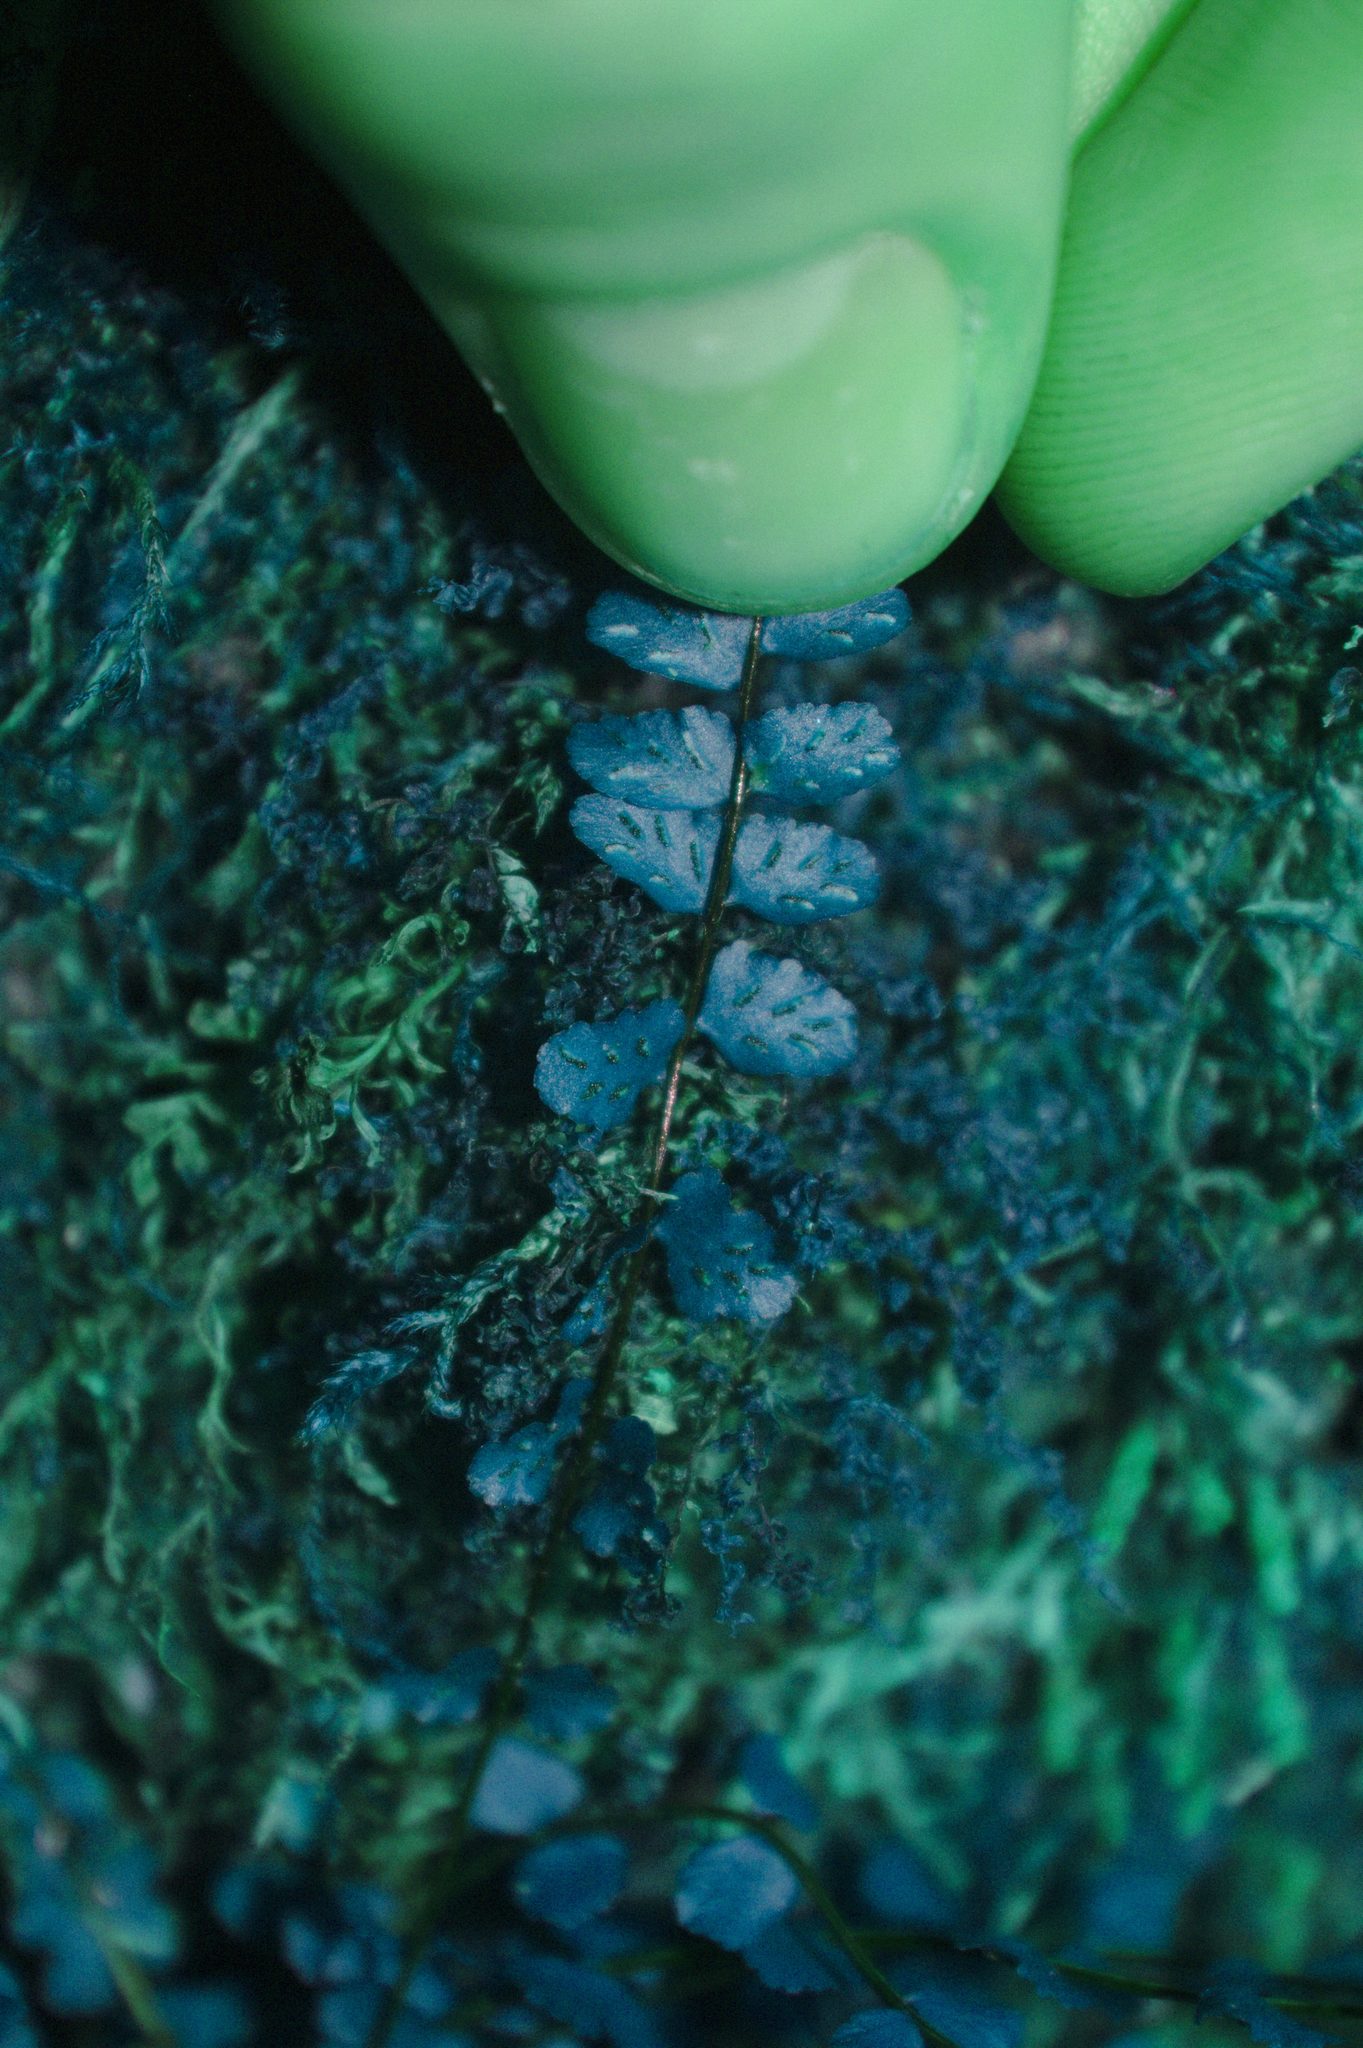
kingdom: Plantae
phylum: Tracheophyta
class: Polypodiopsida
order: Polypodiales
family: Aspleniaceae
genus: Asplenium
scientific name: Asplenium trichomanes
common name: Maidenhair spleenwort
